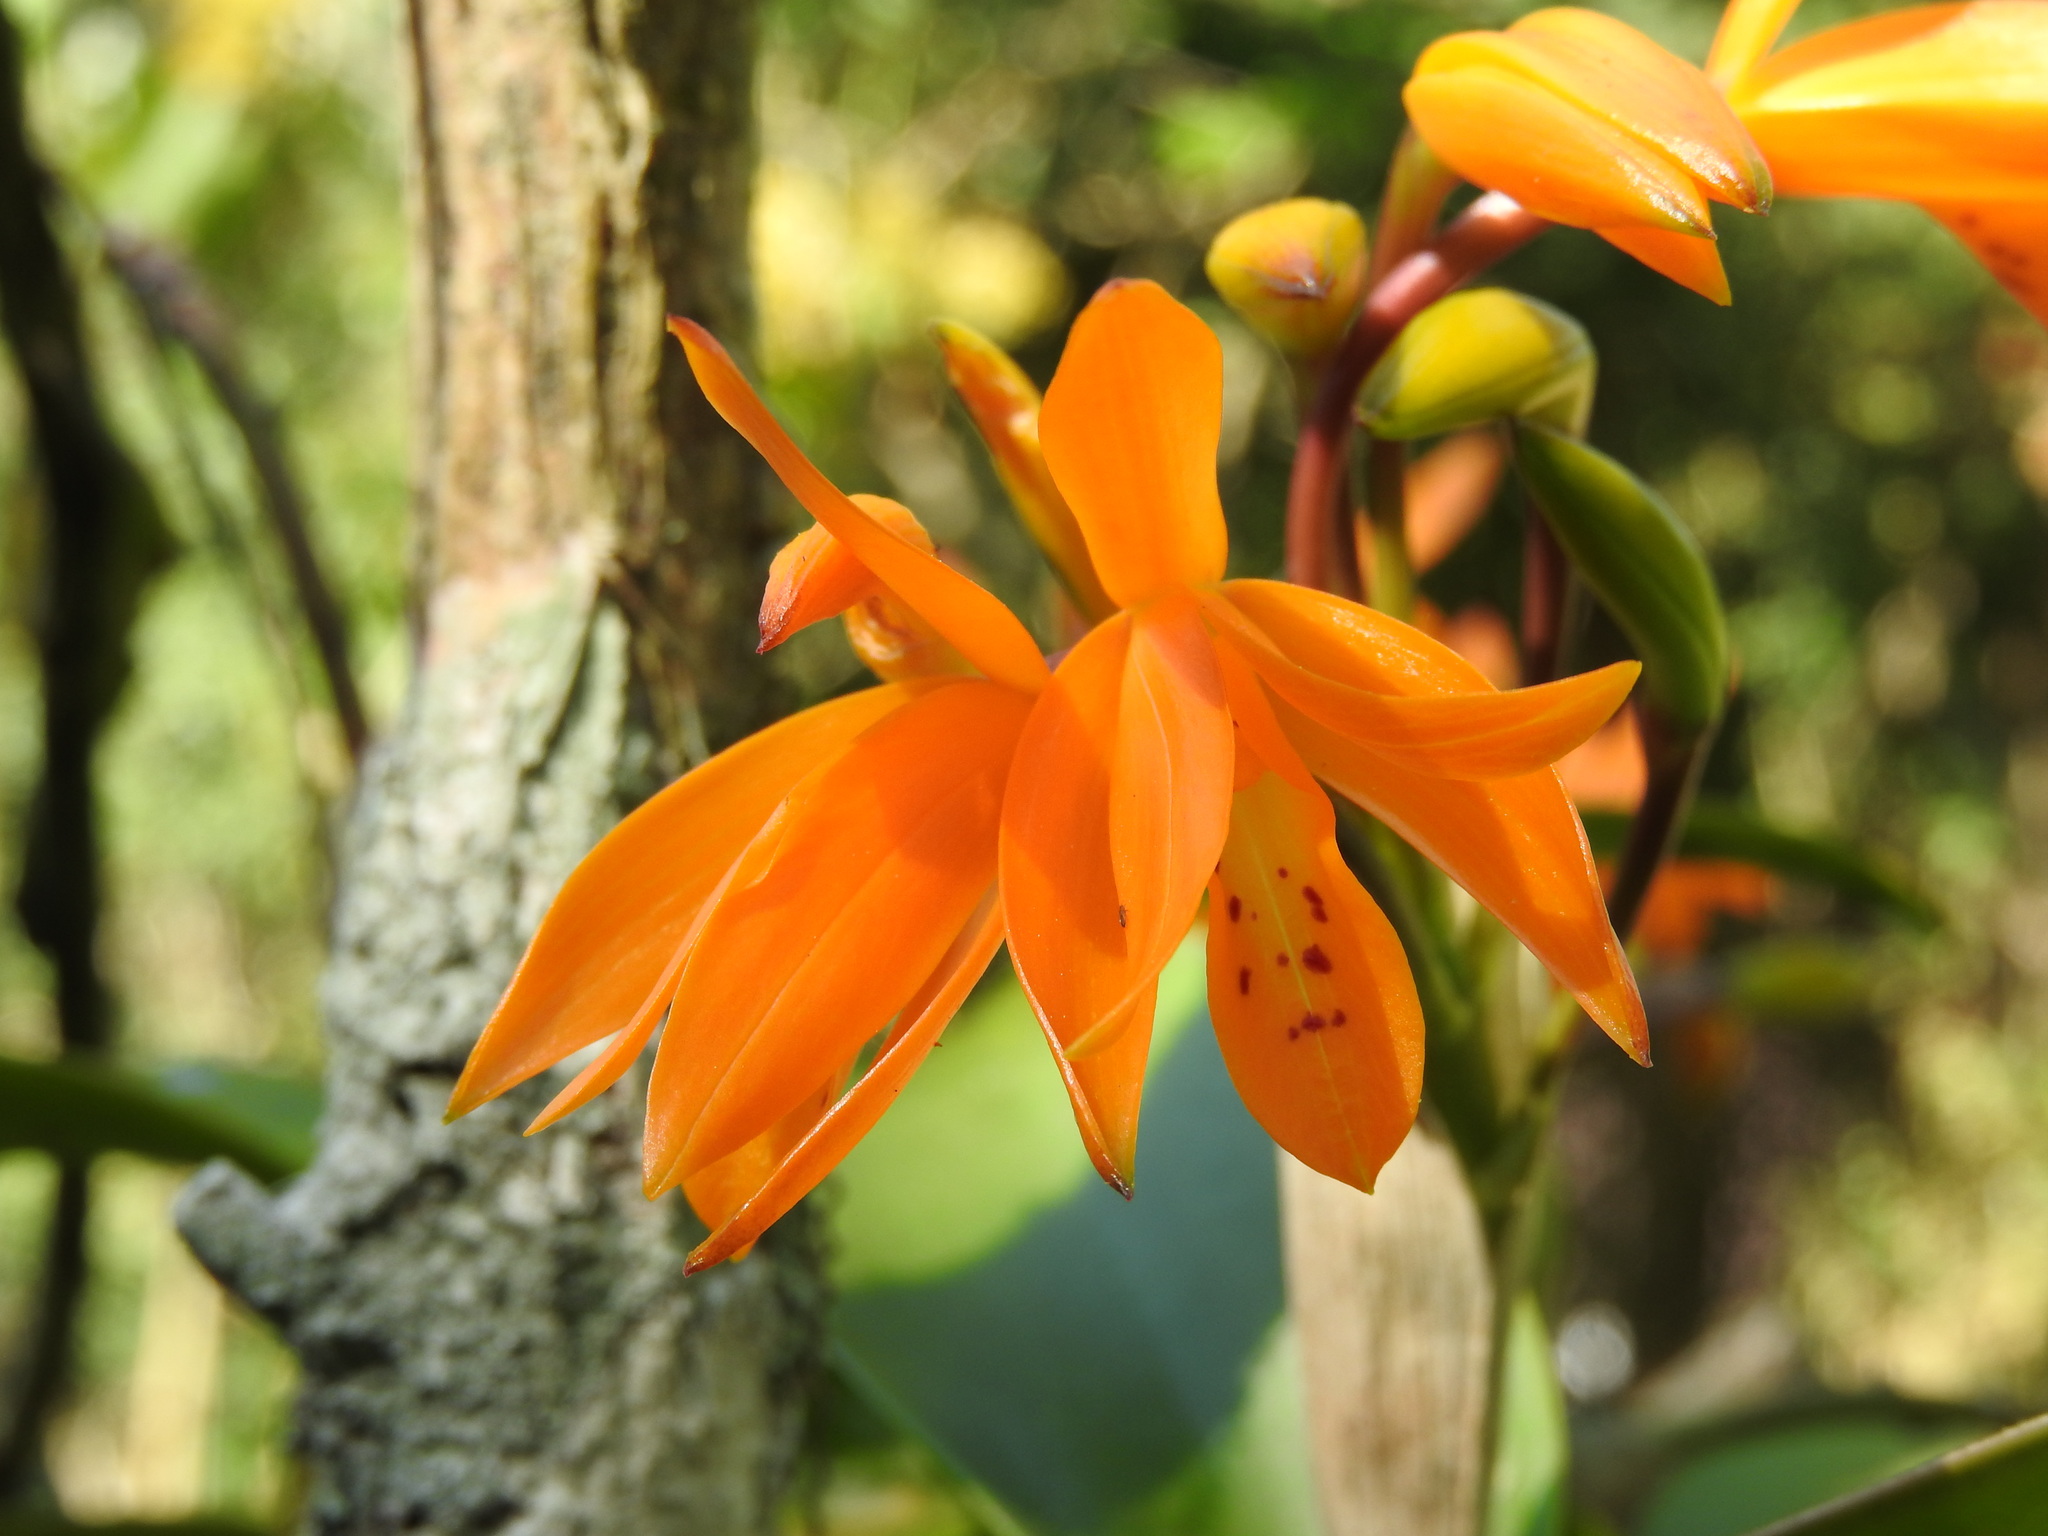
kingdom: Plantae
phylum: Tracheophyta
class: Liliopsida
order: Asparagales
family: Orchidaceae
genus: Guarianthe
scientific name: Guarianthe aurantiaca
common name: Orange cattleya
